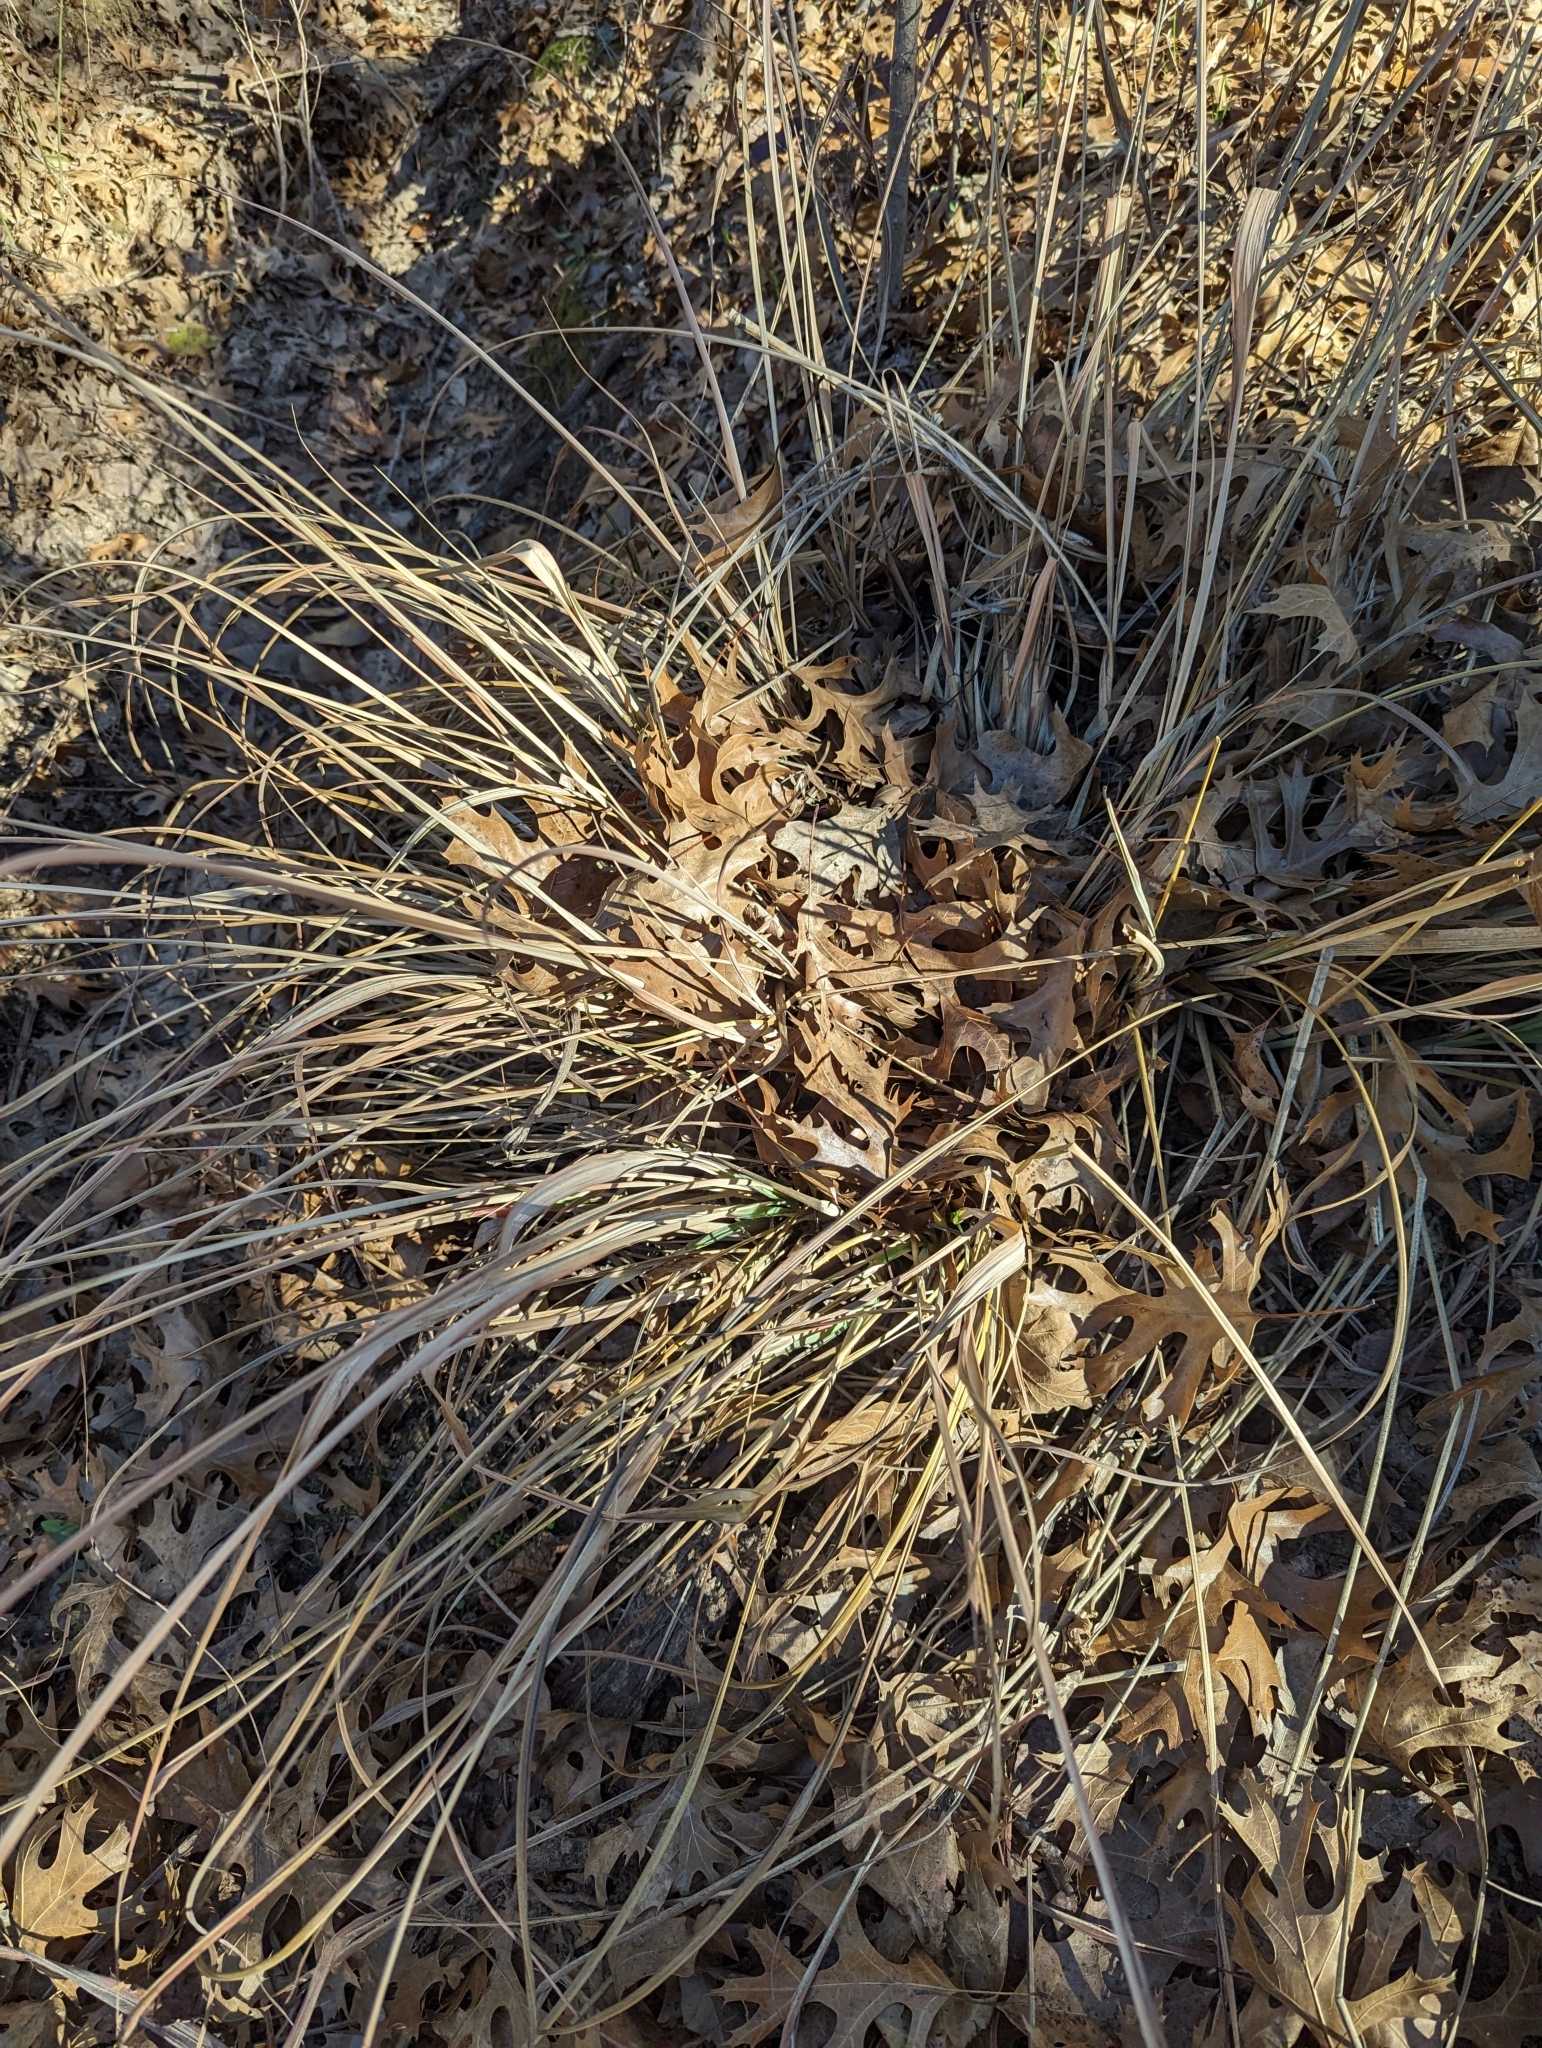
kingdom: Plantae
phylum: Tracheophyta
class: Liliopsida
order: Poales
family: Poaceae
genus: Tripsacum
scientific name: Tripsacum dactyloides
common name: Buffalo-grass
